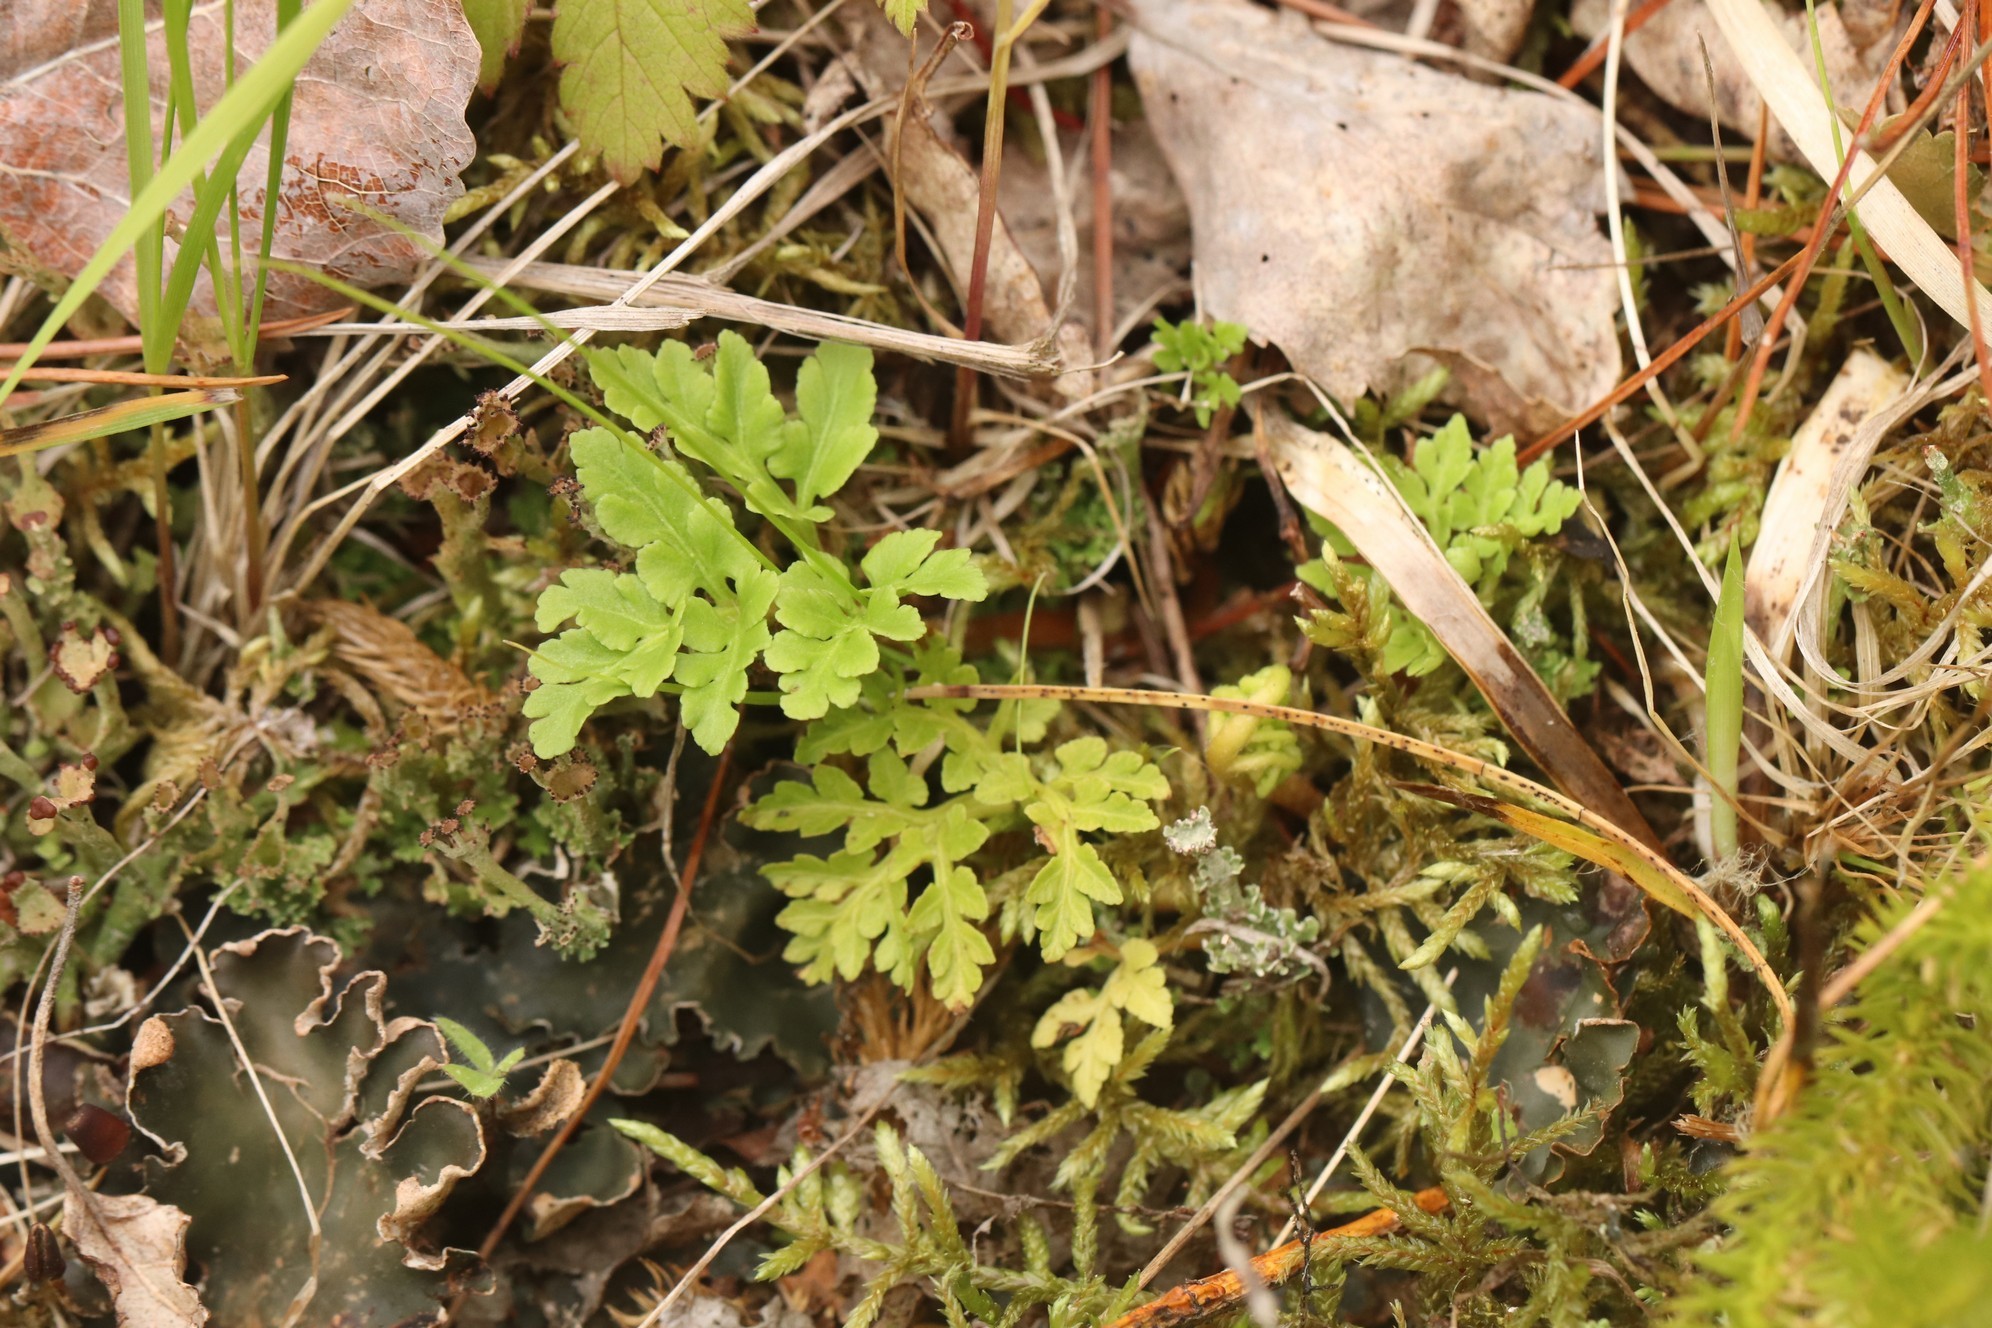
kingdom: Plantae
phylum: Tracheophyta
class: Polypodiopsida
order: Ophioglossales
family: Ophioglossaceae
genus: Sceptridium
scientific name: Sceptridium multifidum
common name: Leathery grape fern
